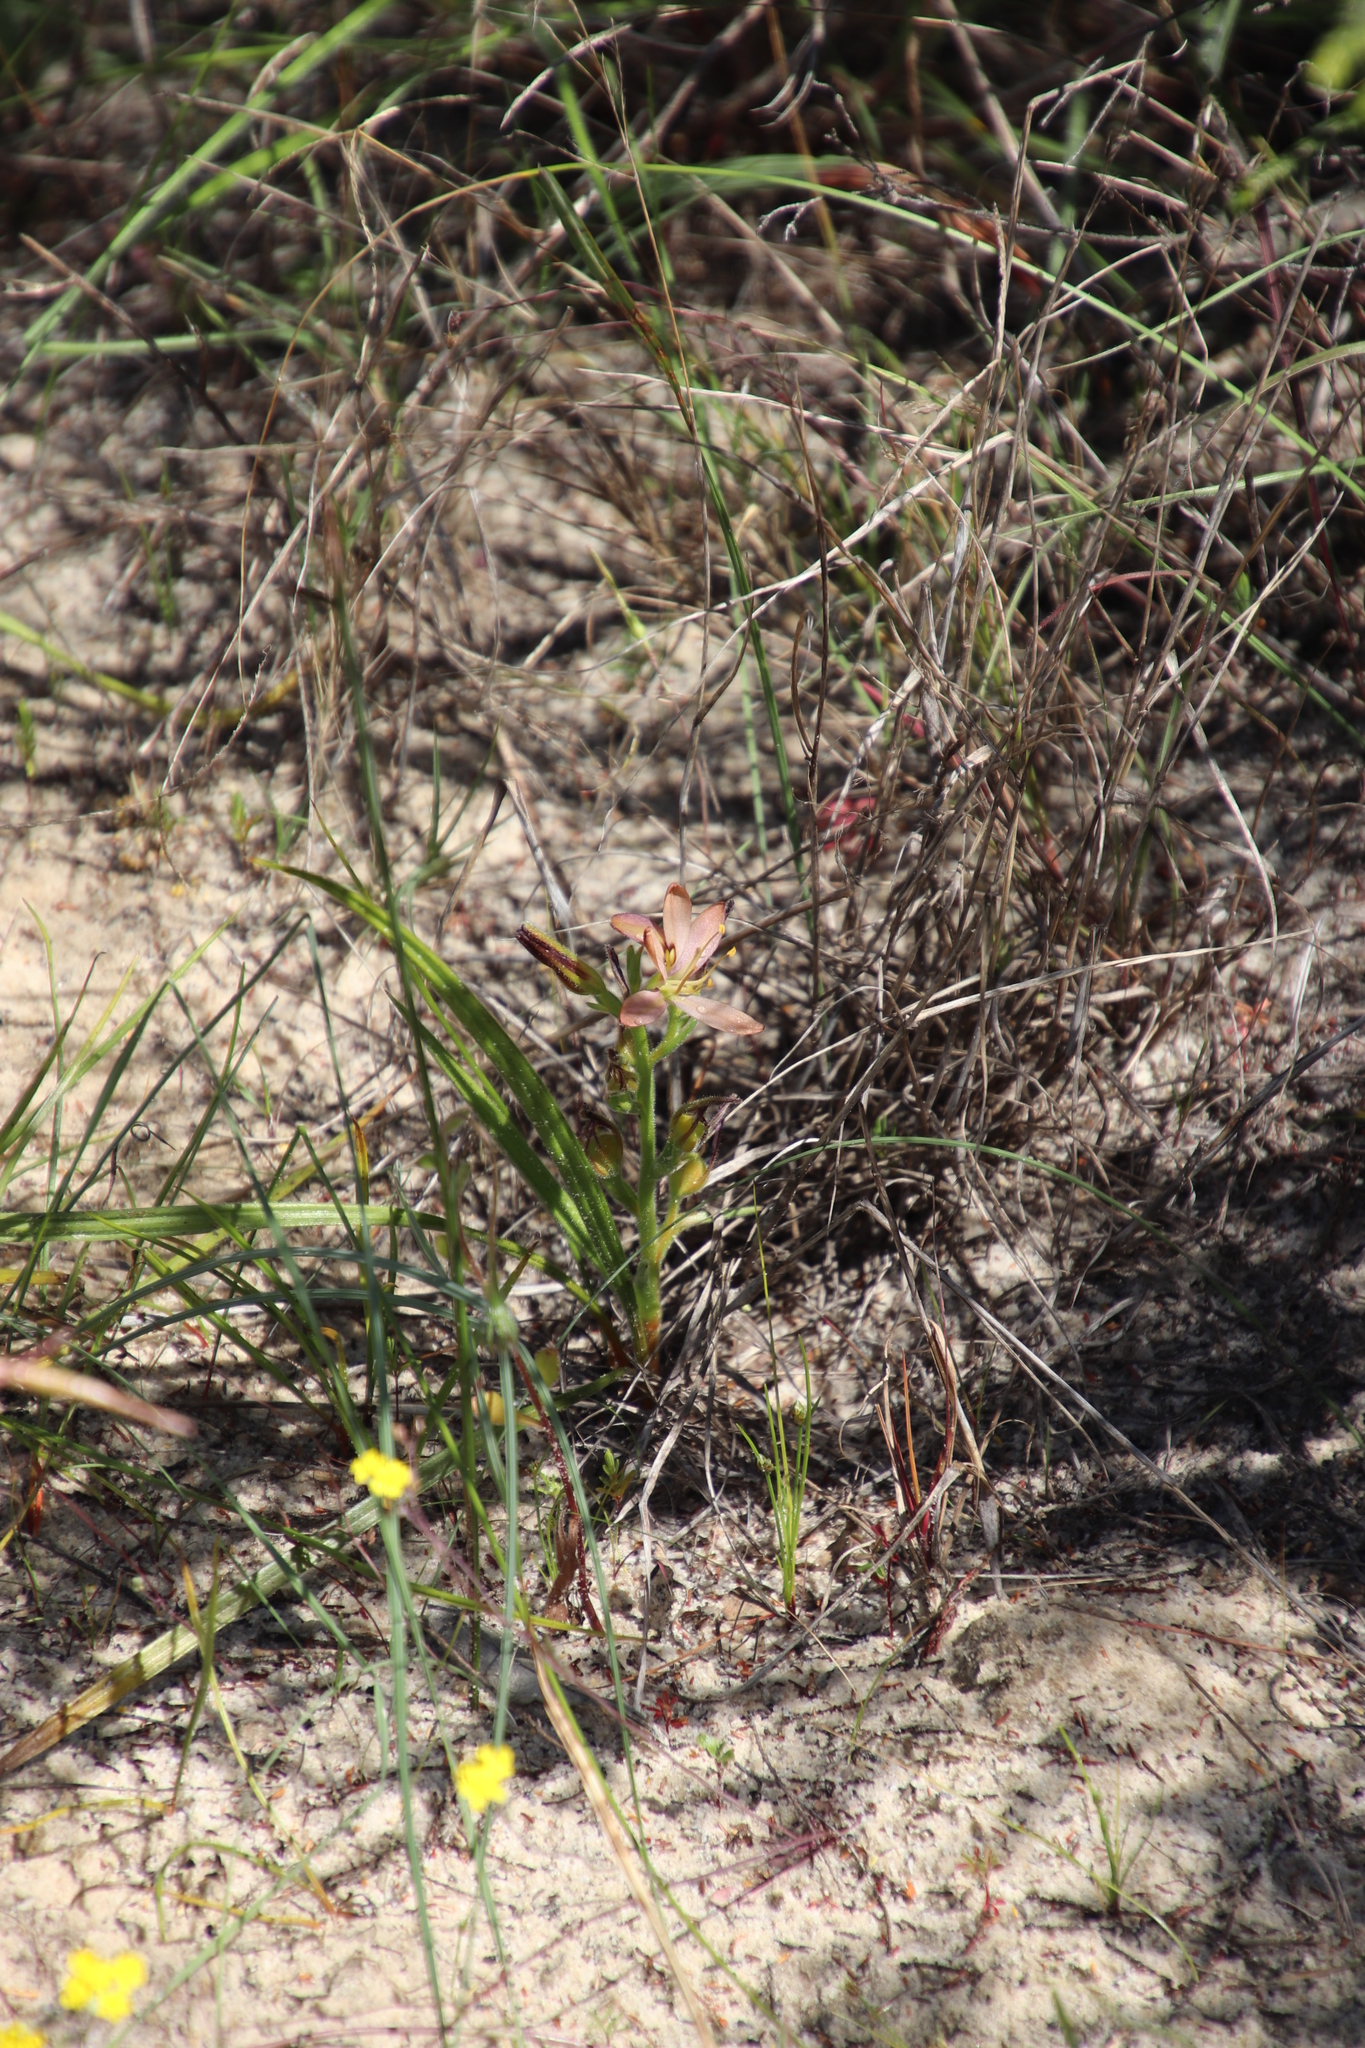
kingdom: Plantae
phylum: Tracheophyta
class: Liliopsida
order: Commelinales
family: Haemodoraceae
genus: Wachendorfia
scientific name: Wachendorfia multiflora
